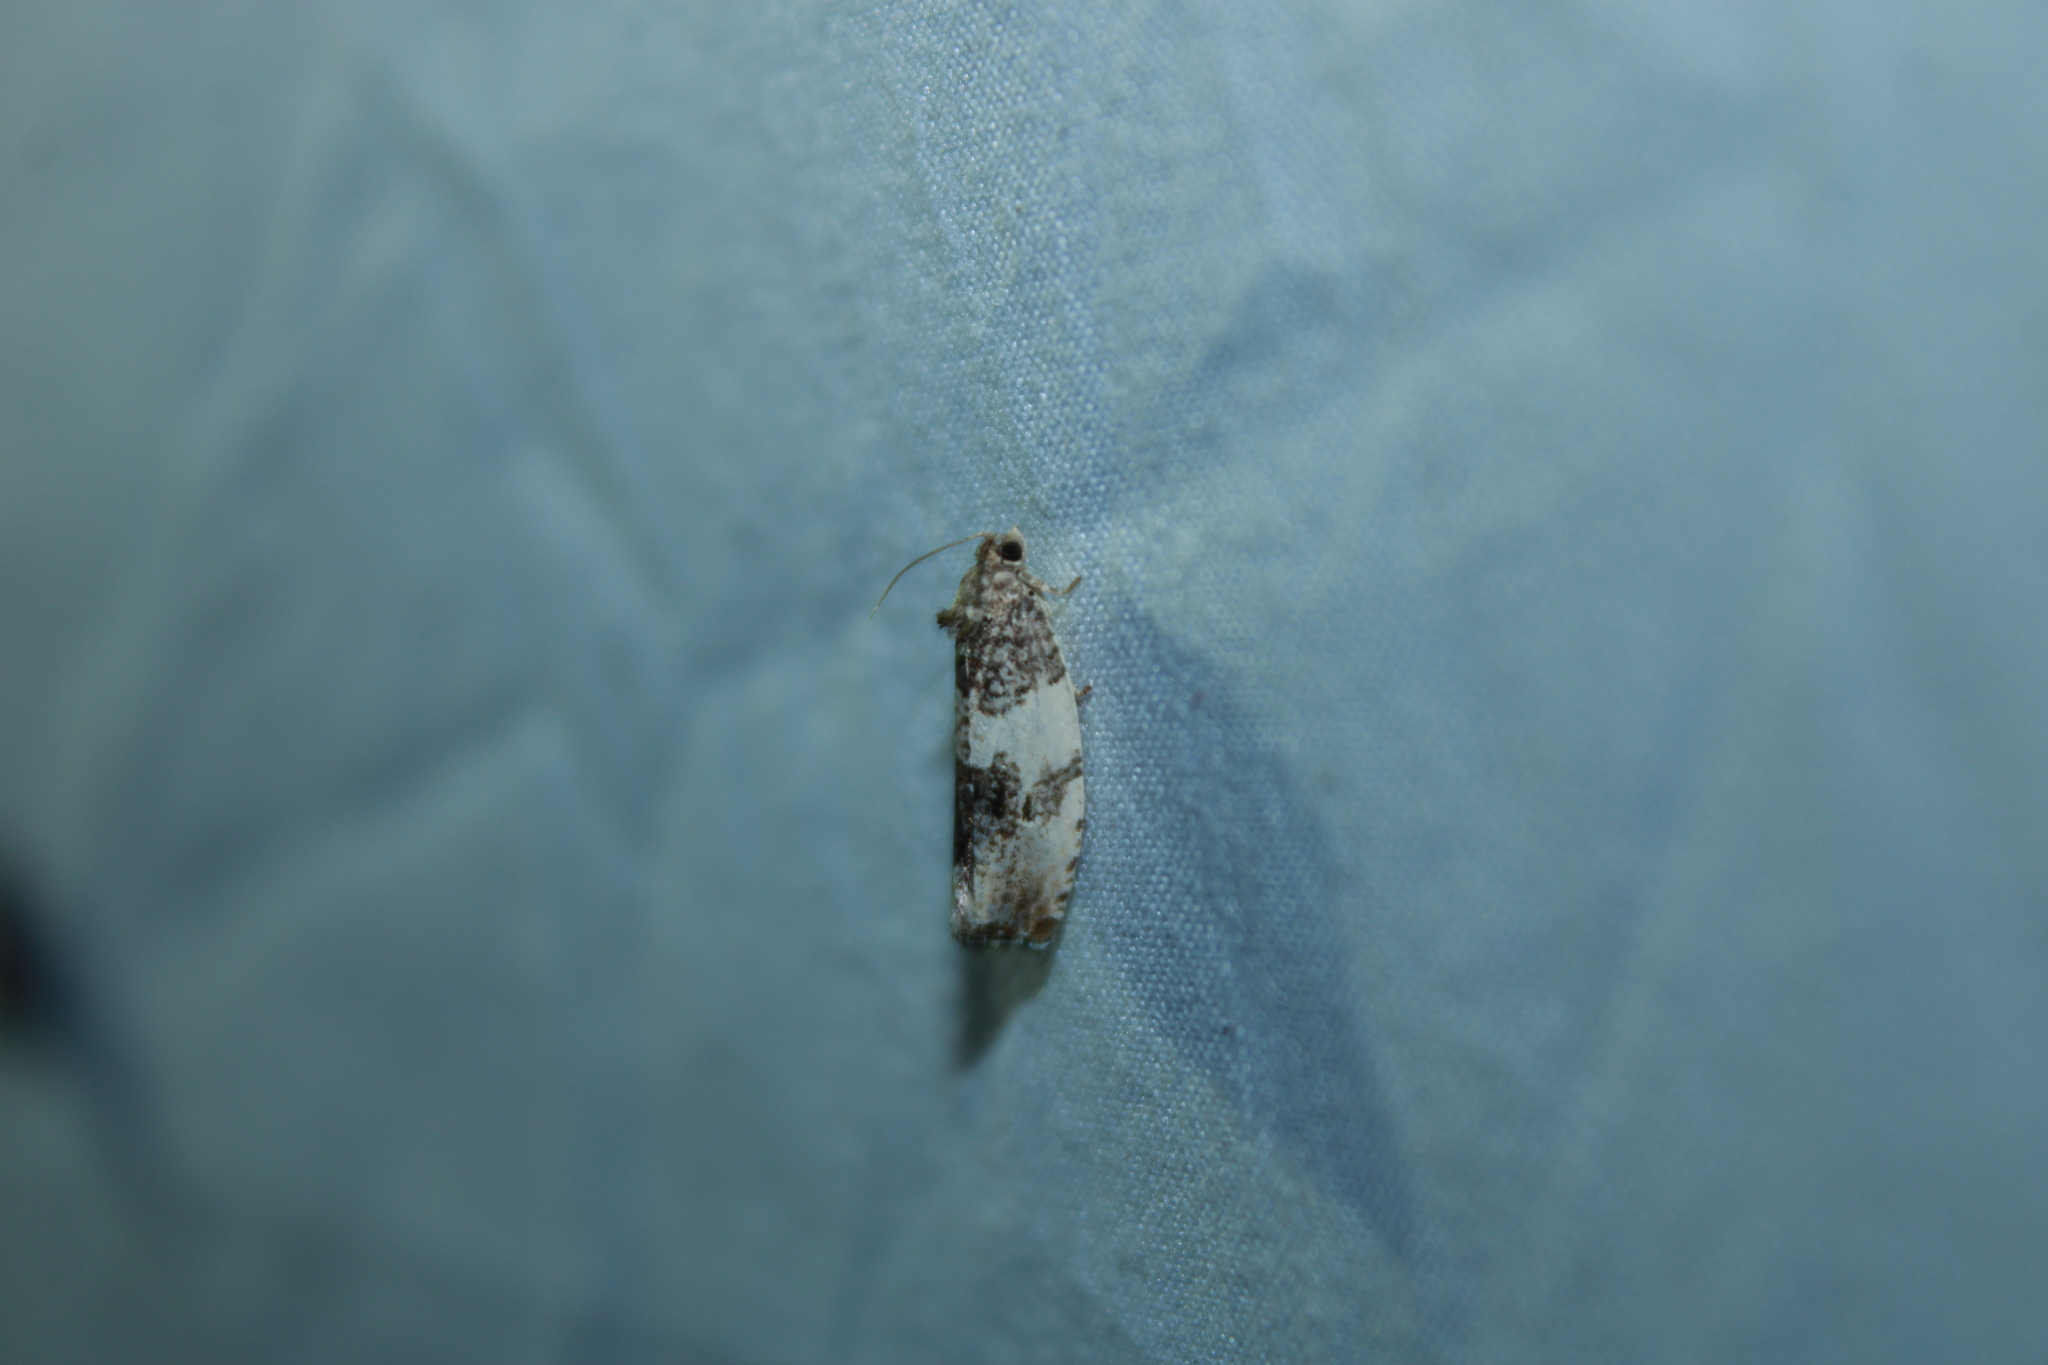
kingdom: Animalia
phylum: Arthropoda
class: Insecta
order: Lepidoptera
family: Tortricidae
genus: Pseudosciaphila
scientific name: Pseudosciaphila duplex
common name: Poplar leafroller moth
